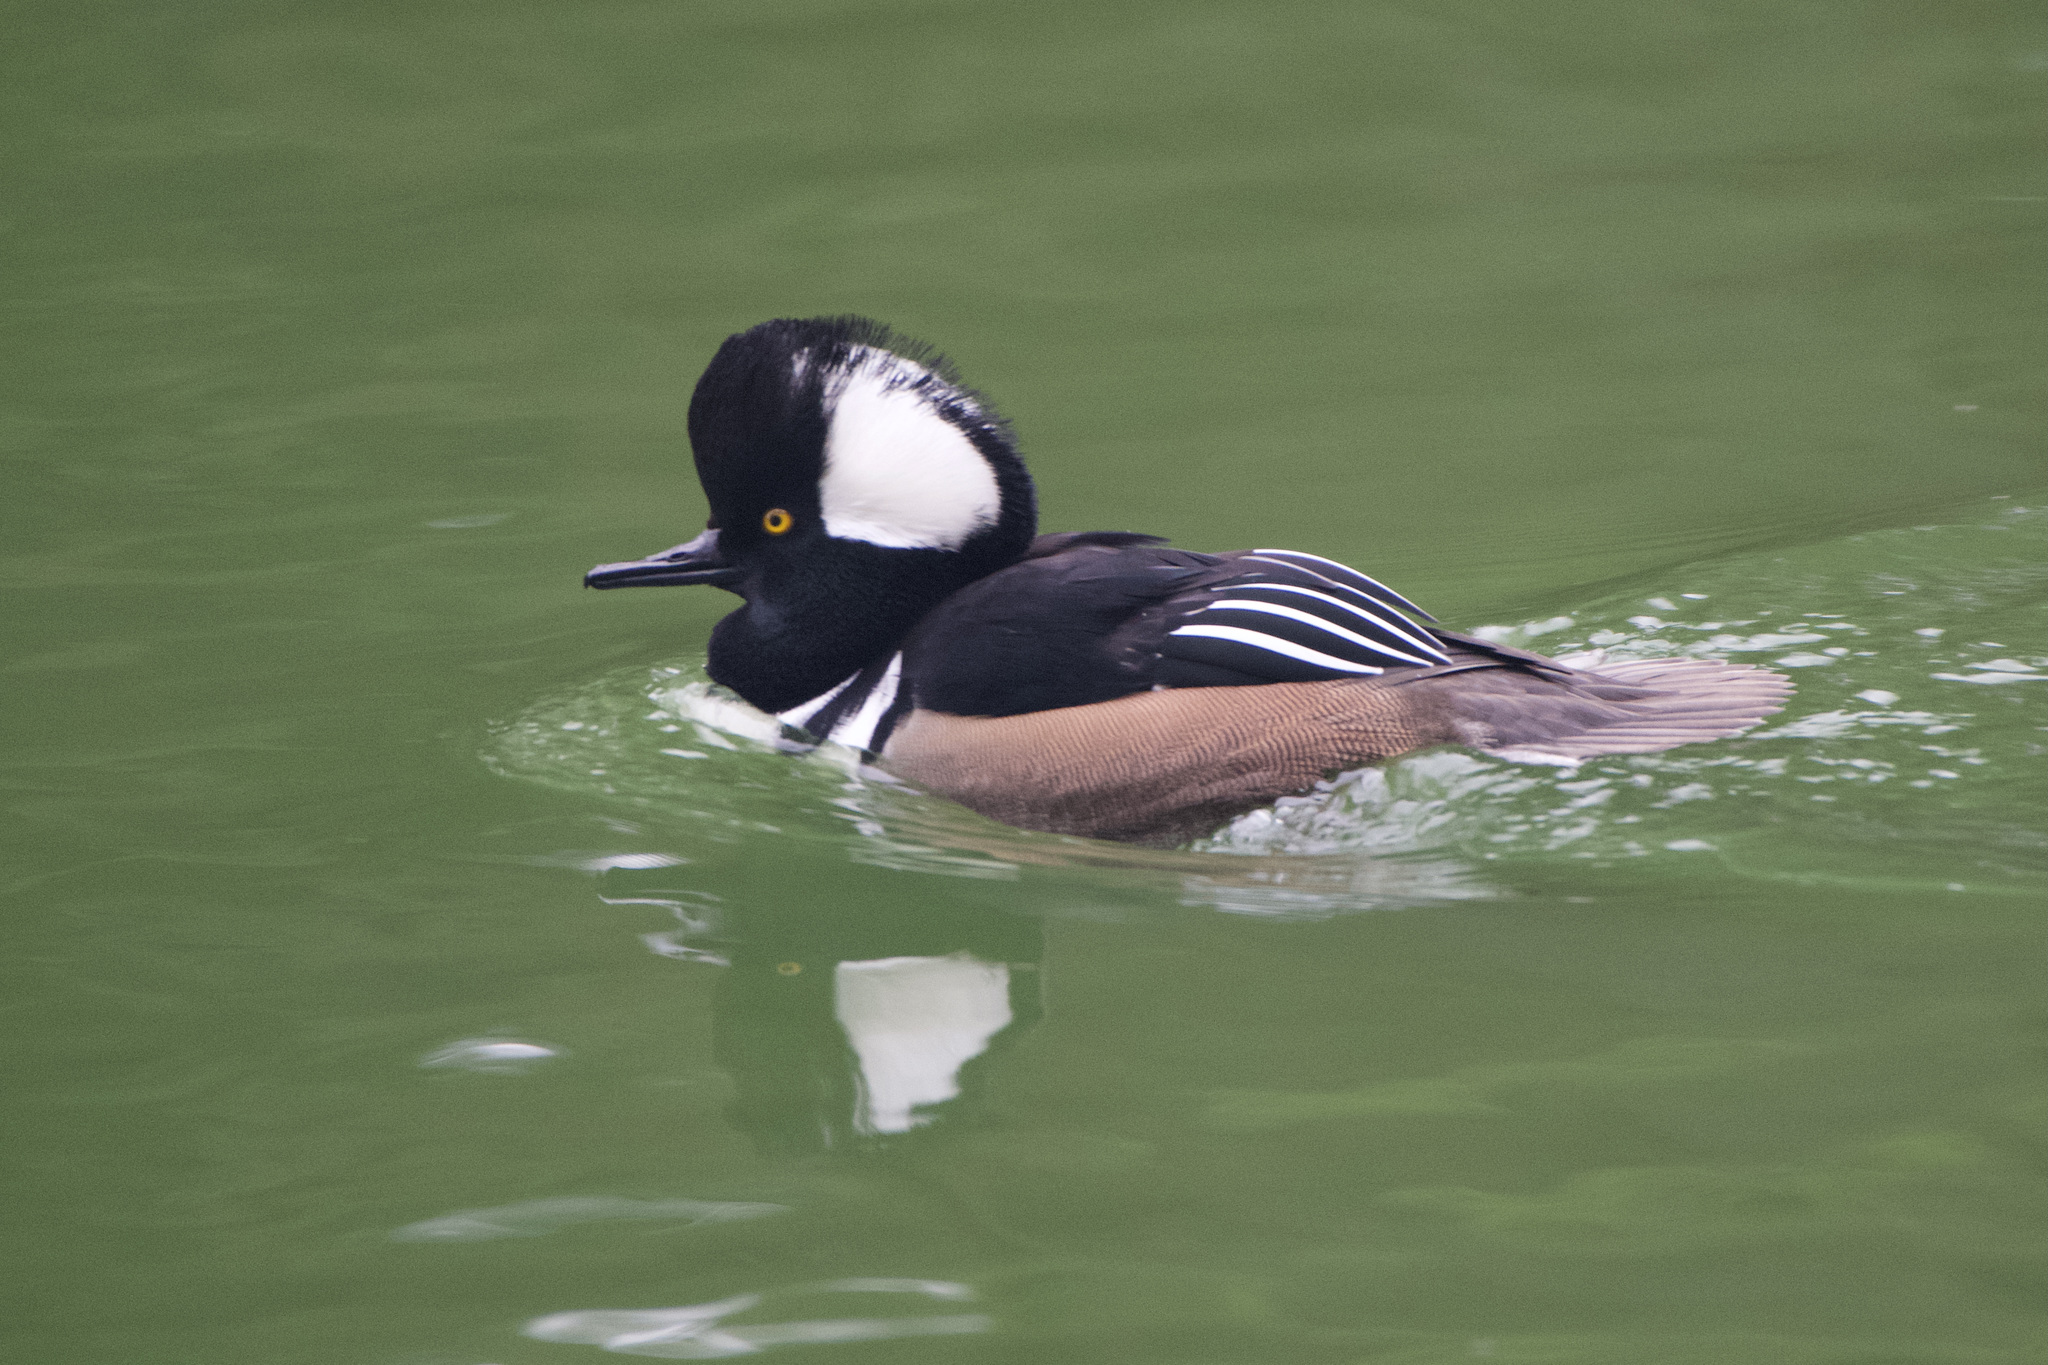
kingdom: Animalia
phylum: Chordata
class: Aves
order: Anseriformes
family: Anatidae
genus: Lophodytes
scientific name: Lophodytes cucullatus
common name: Hooded merganser
